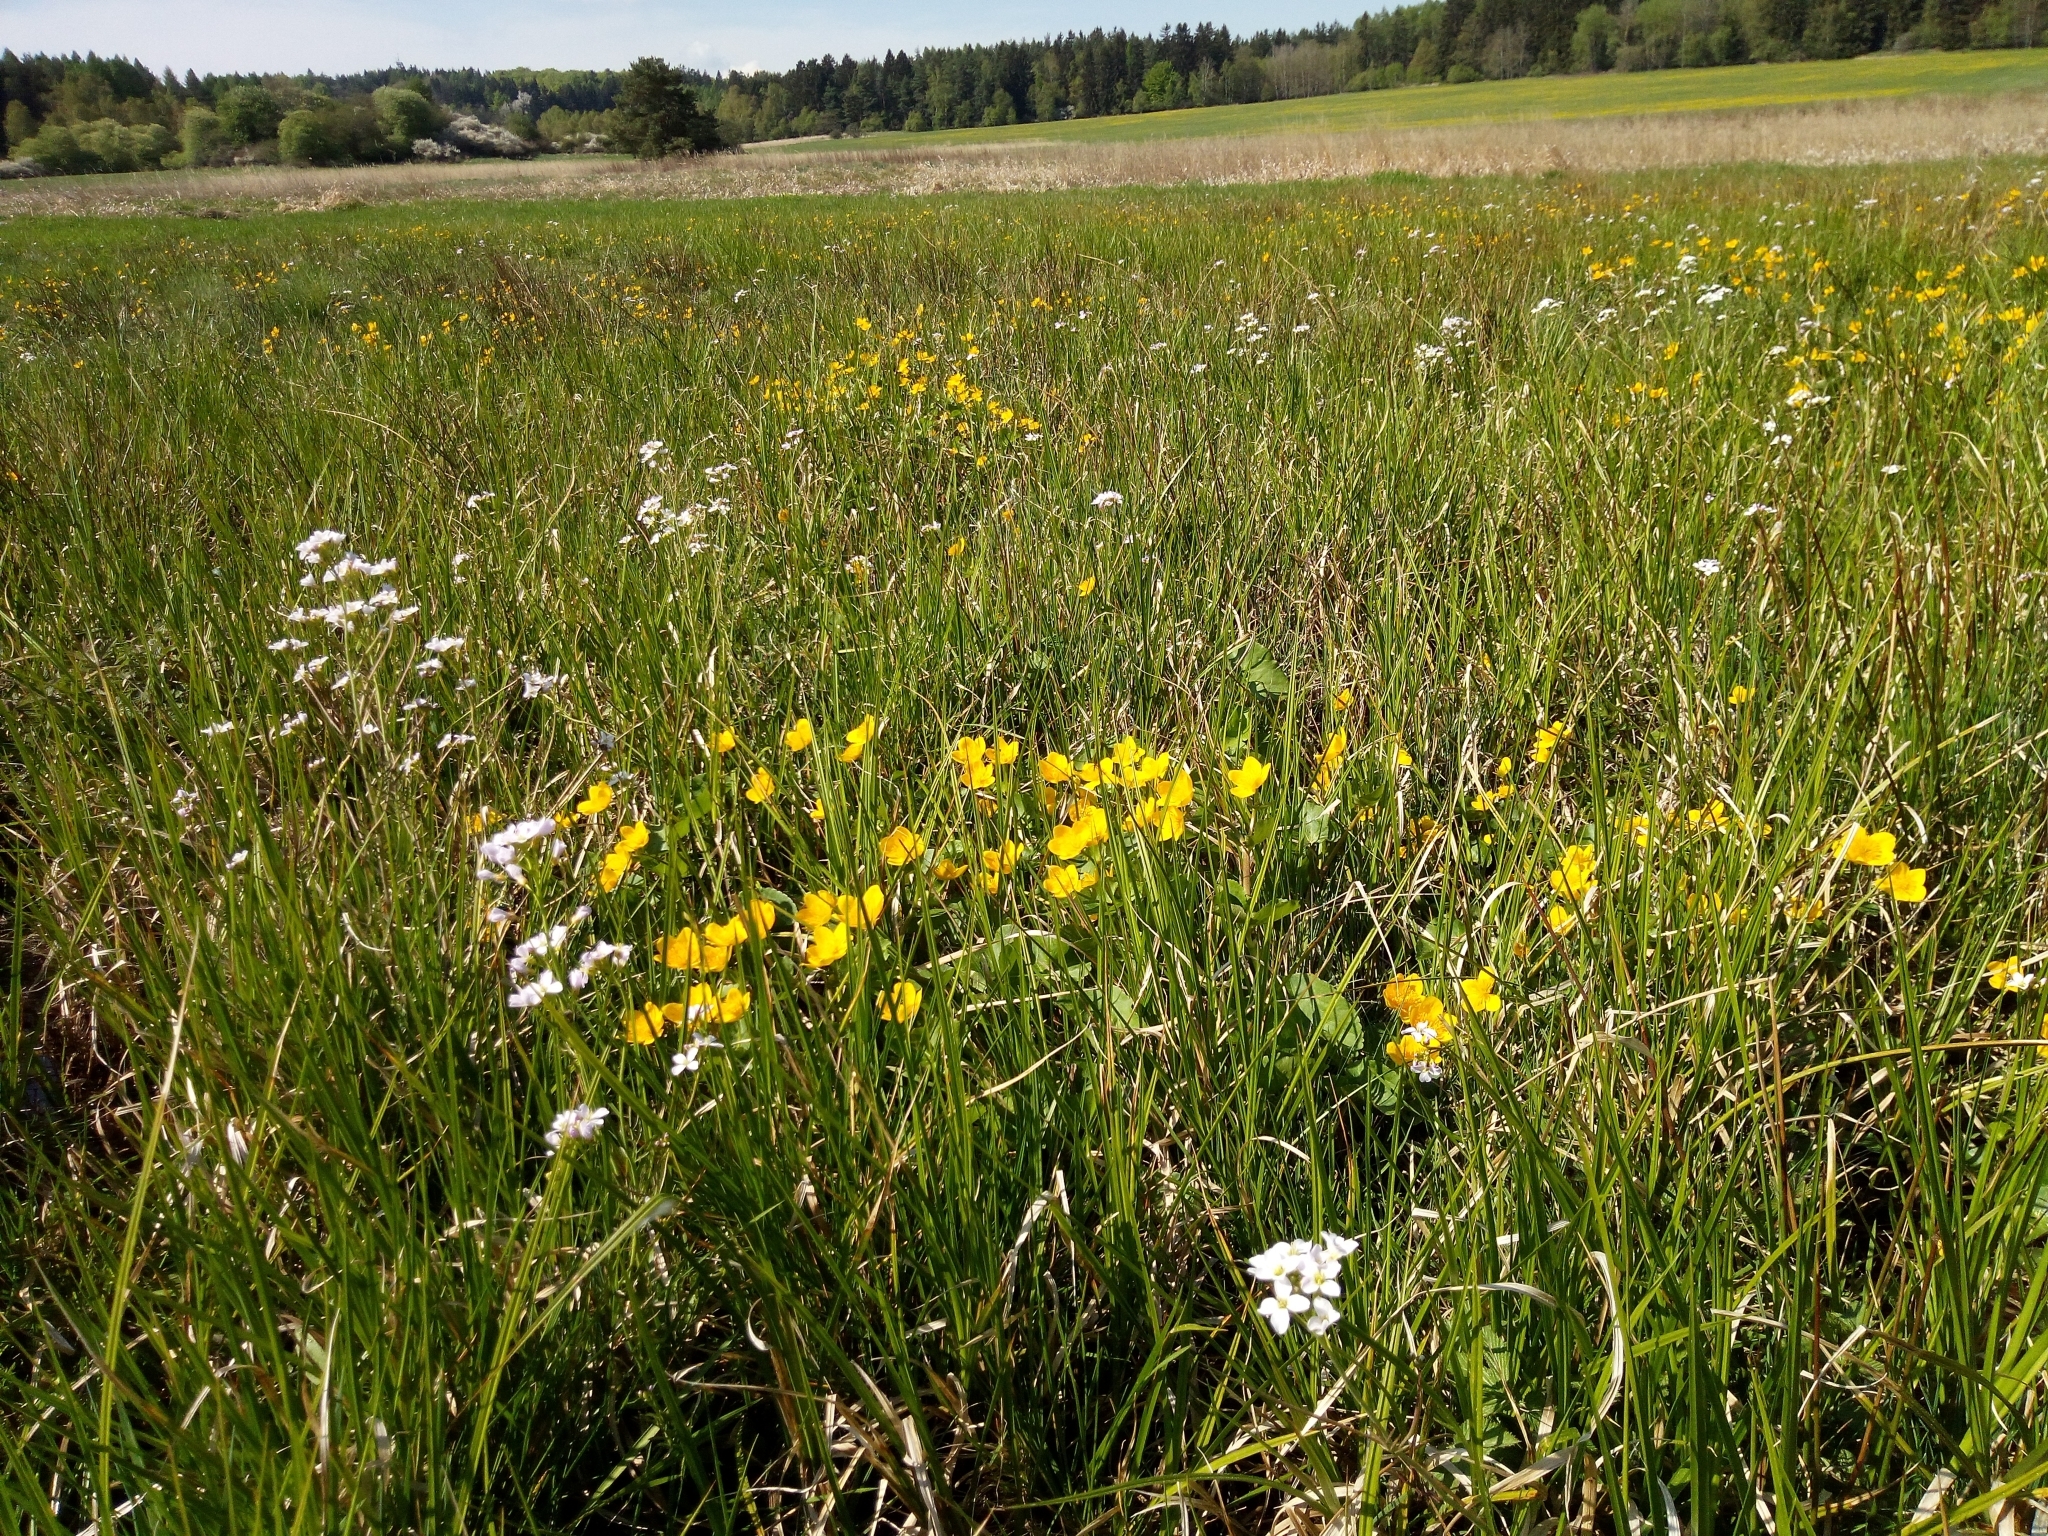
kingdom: Plantae
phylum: Tracheophyta
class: Magnoliopsida
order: Ranunculales
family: Ranunculaceae
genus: Caltha
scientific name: Caltha palustris
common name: Marsh marigold
